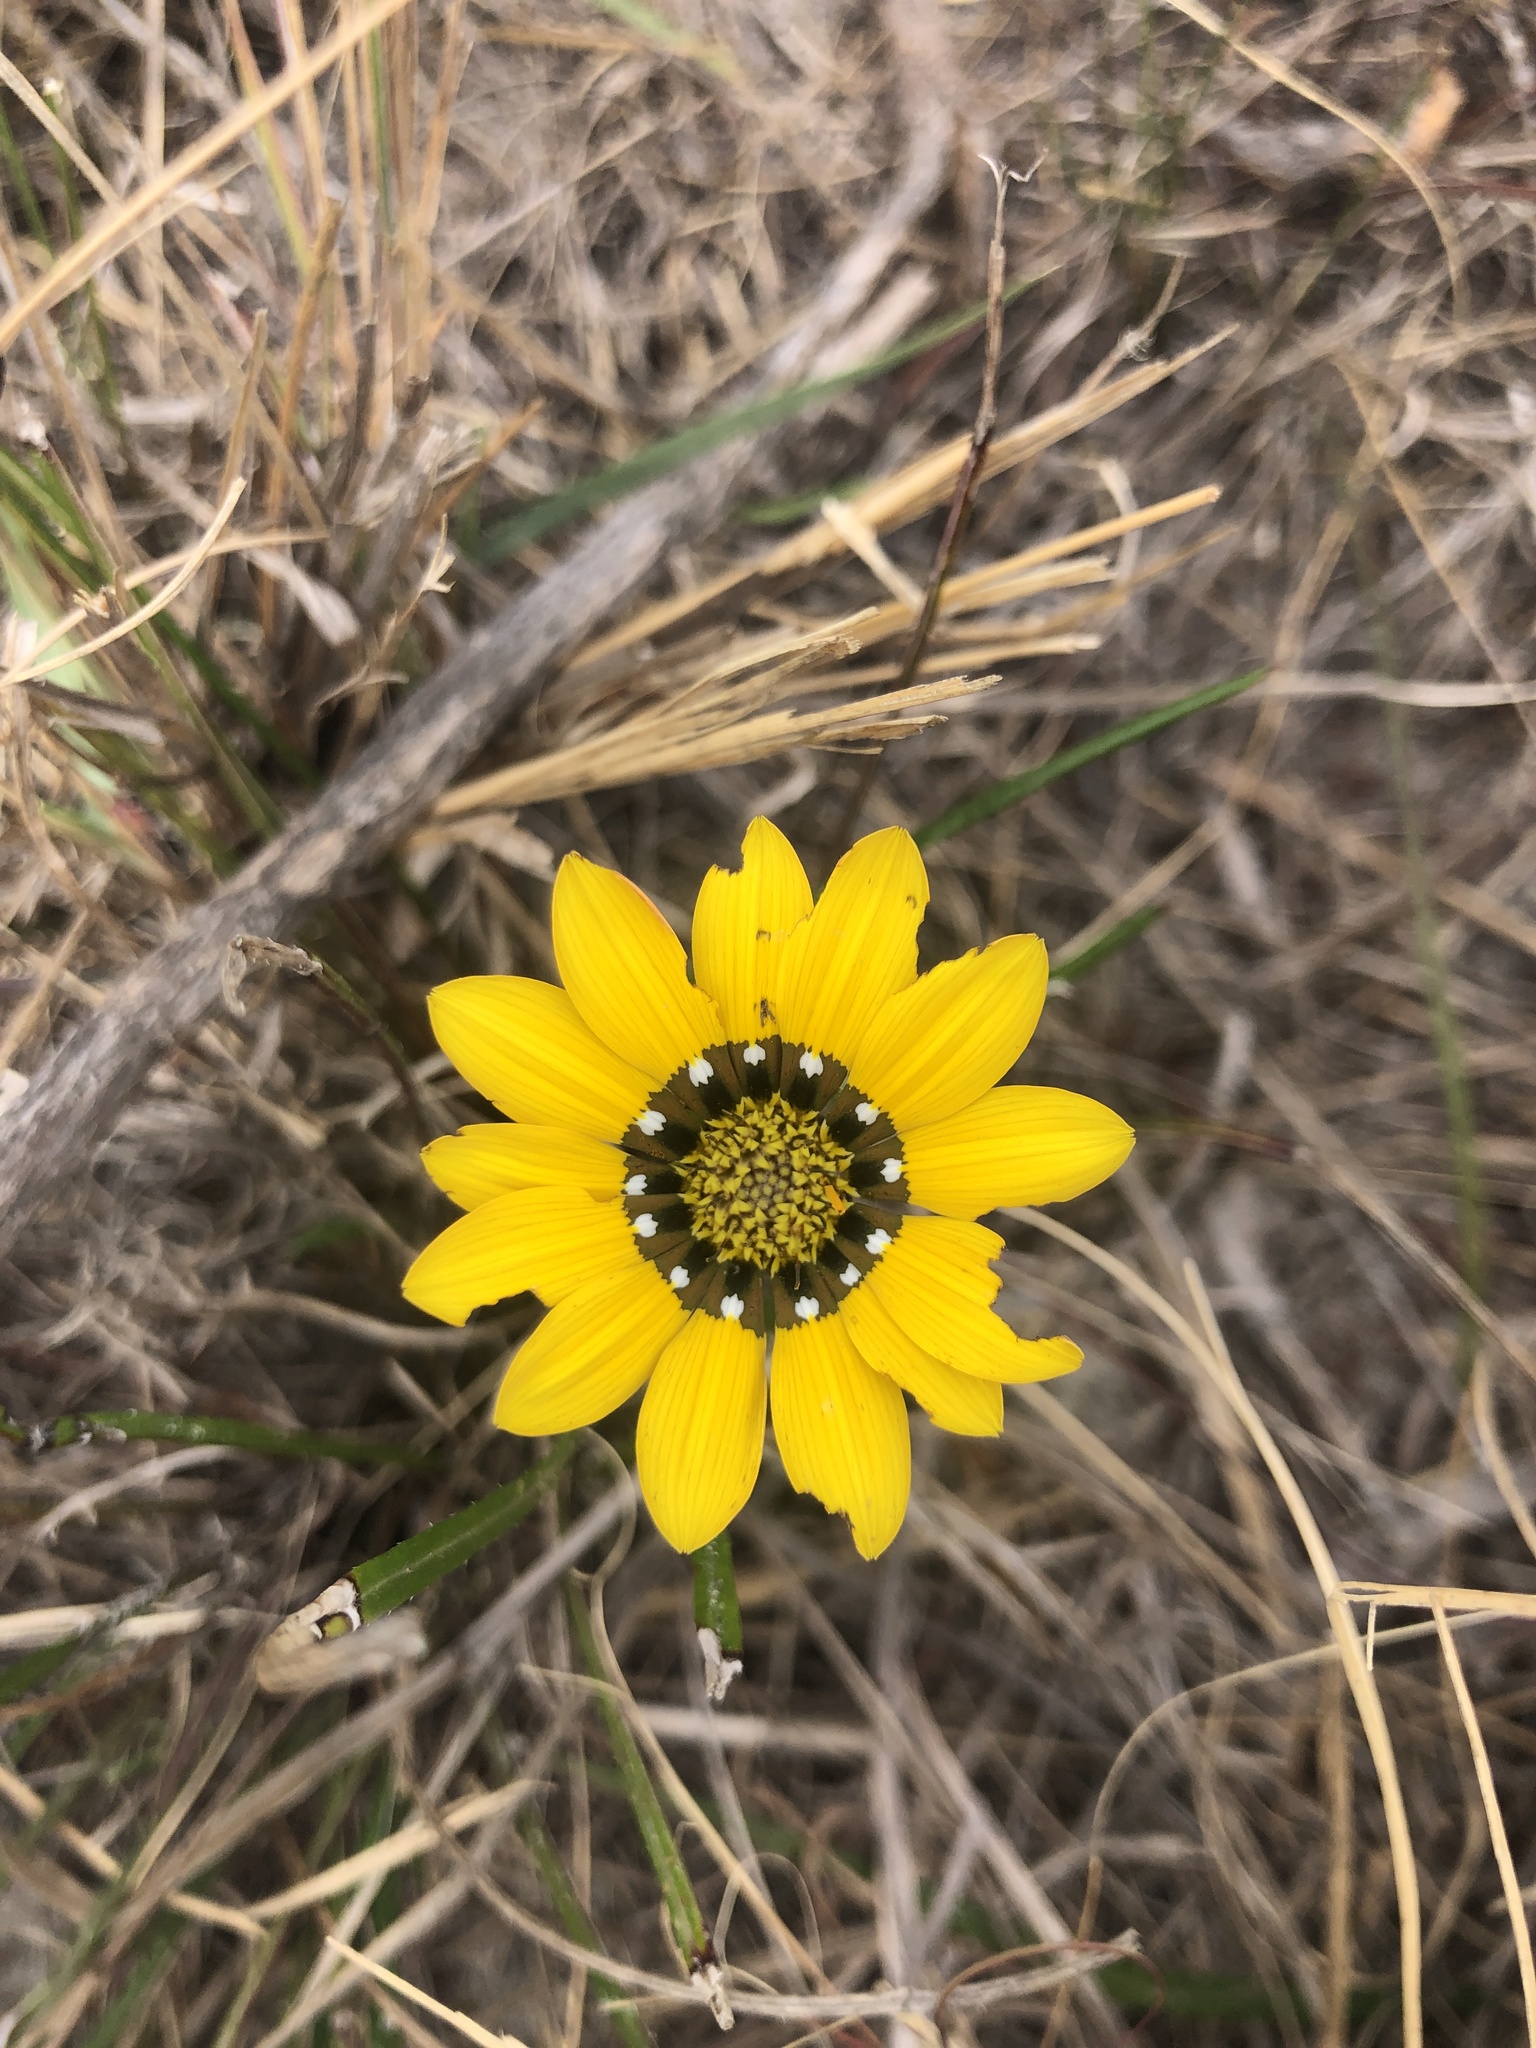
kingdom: Plantae
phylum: Tracheophyta
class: Magnoliopsida
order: Asterales
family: Asteraceae
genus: Gazania
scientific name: Gazania pectinata
